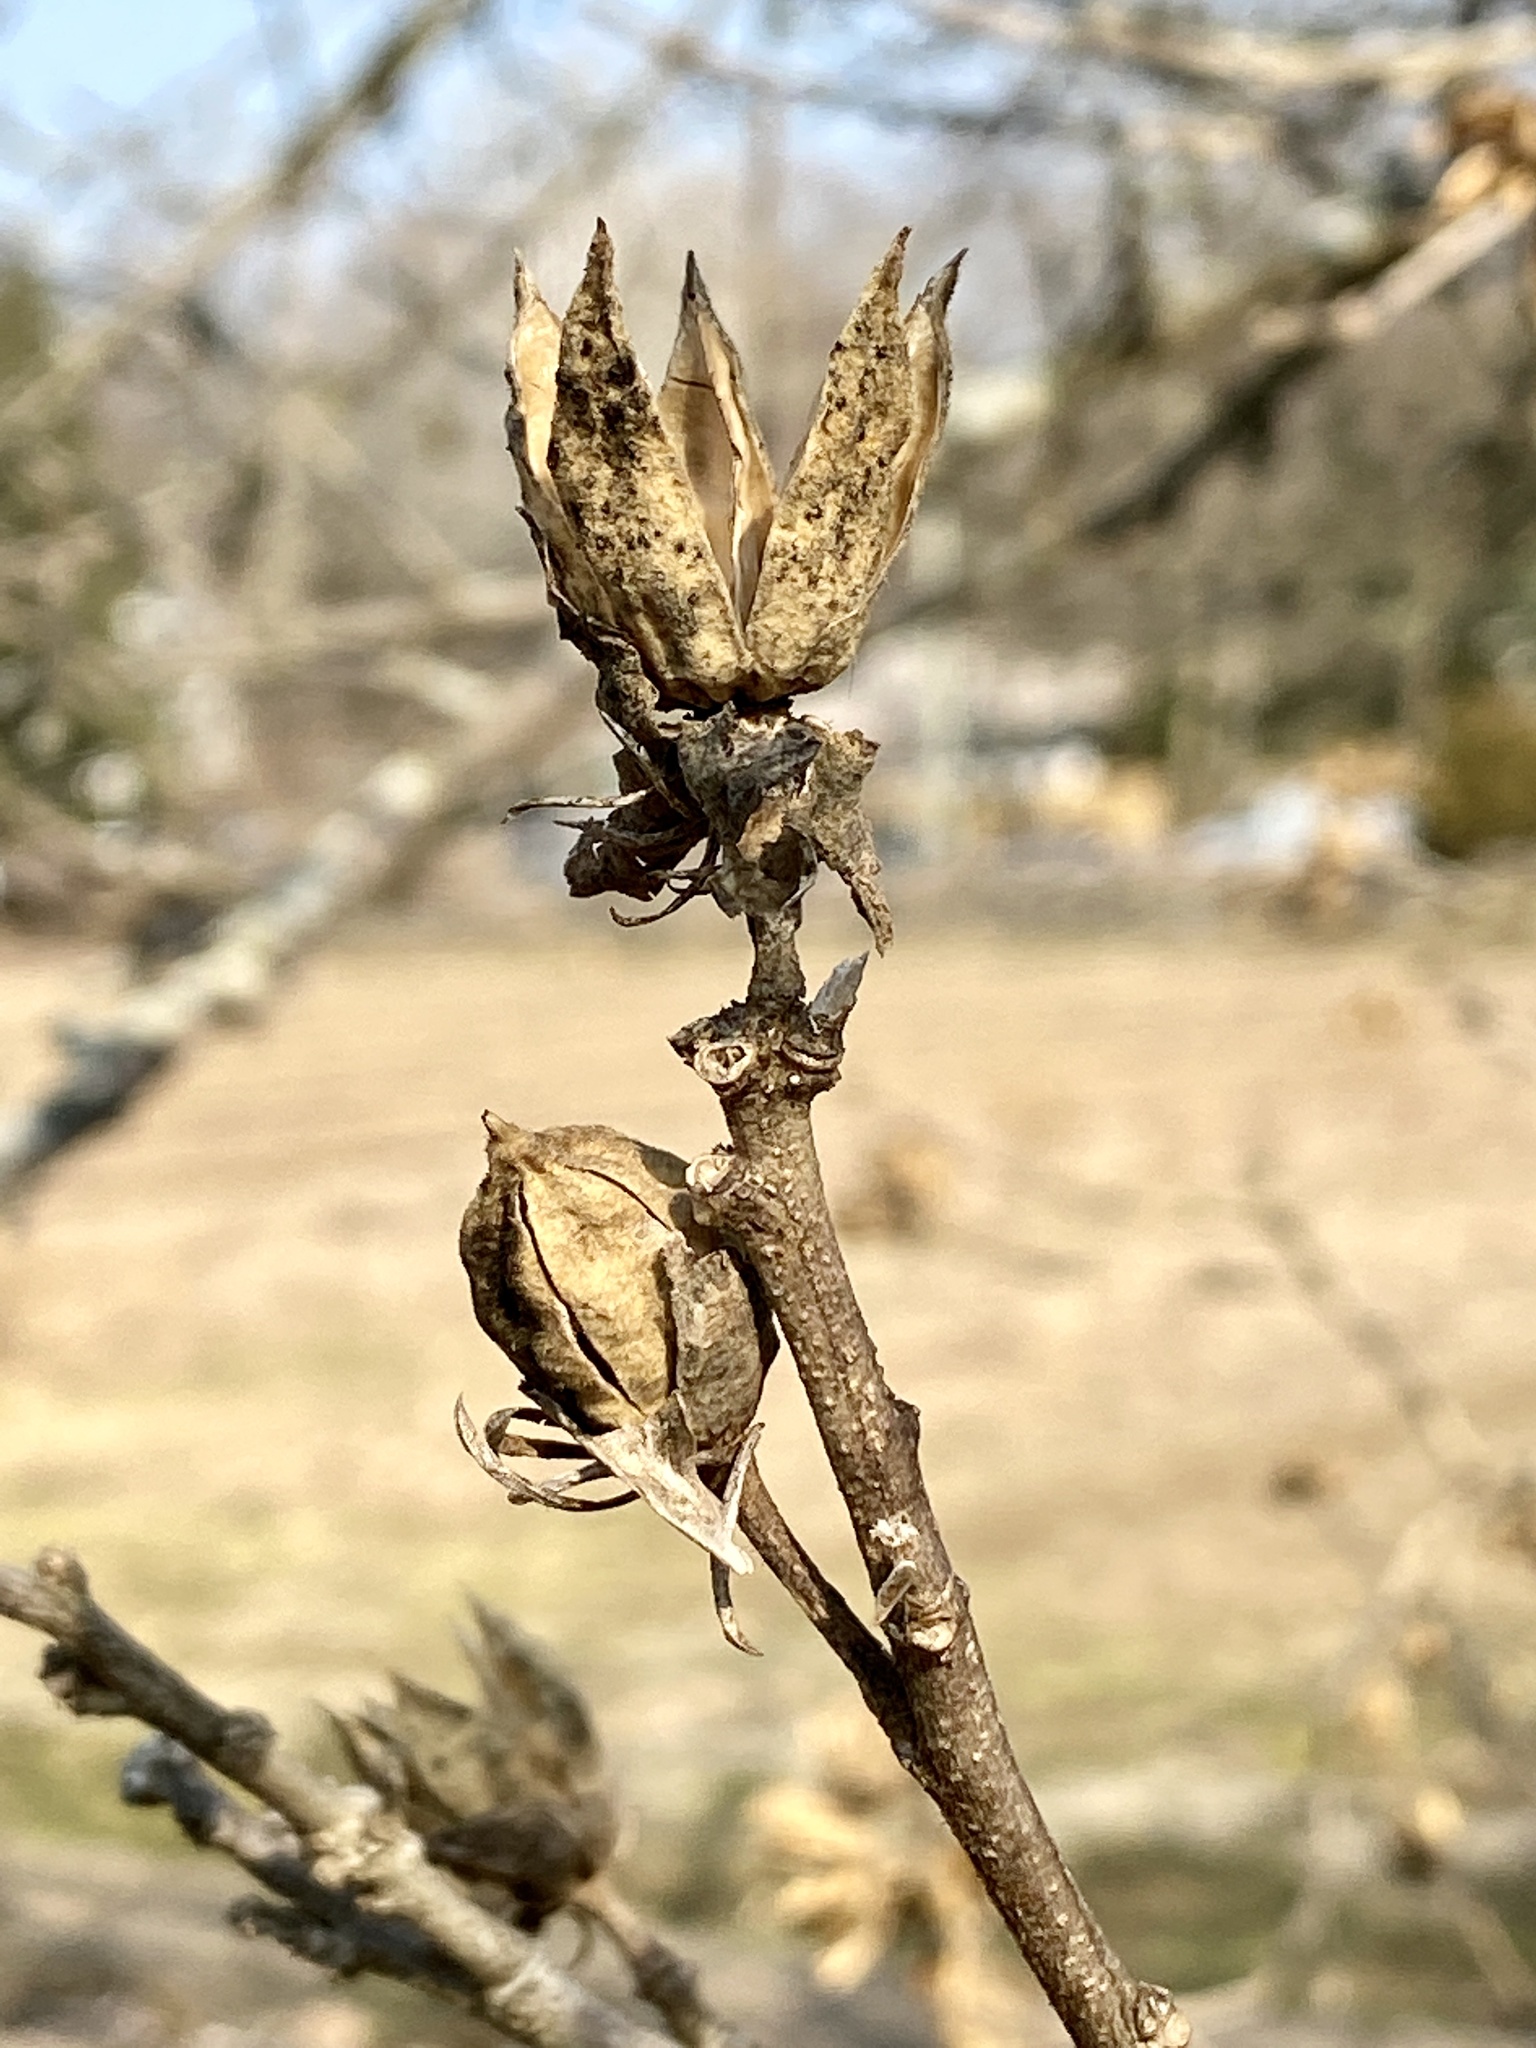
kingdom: Plantae
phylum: Tracheophyta
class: Magnoliopsida
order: Malvales
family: Malvaceae
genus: Hibiscus
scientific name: Hibiscus syriacus
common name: Syrian ketmia
